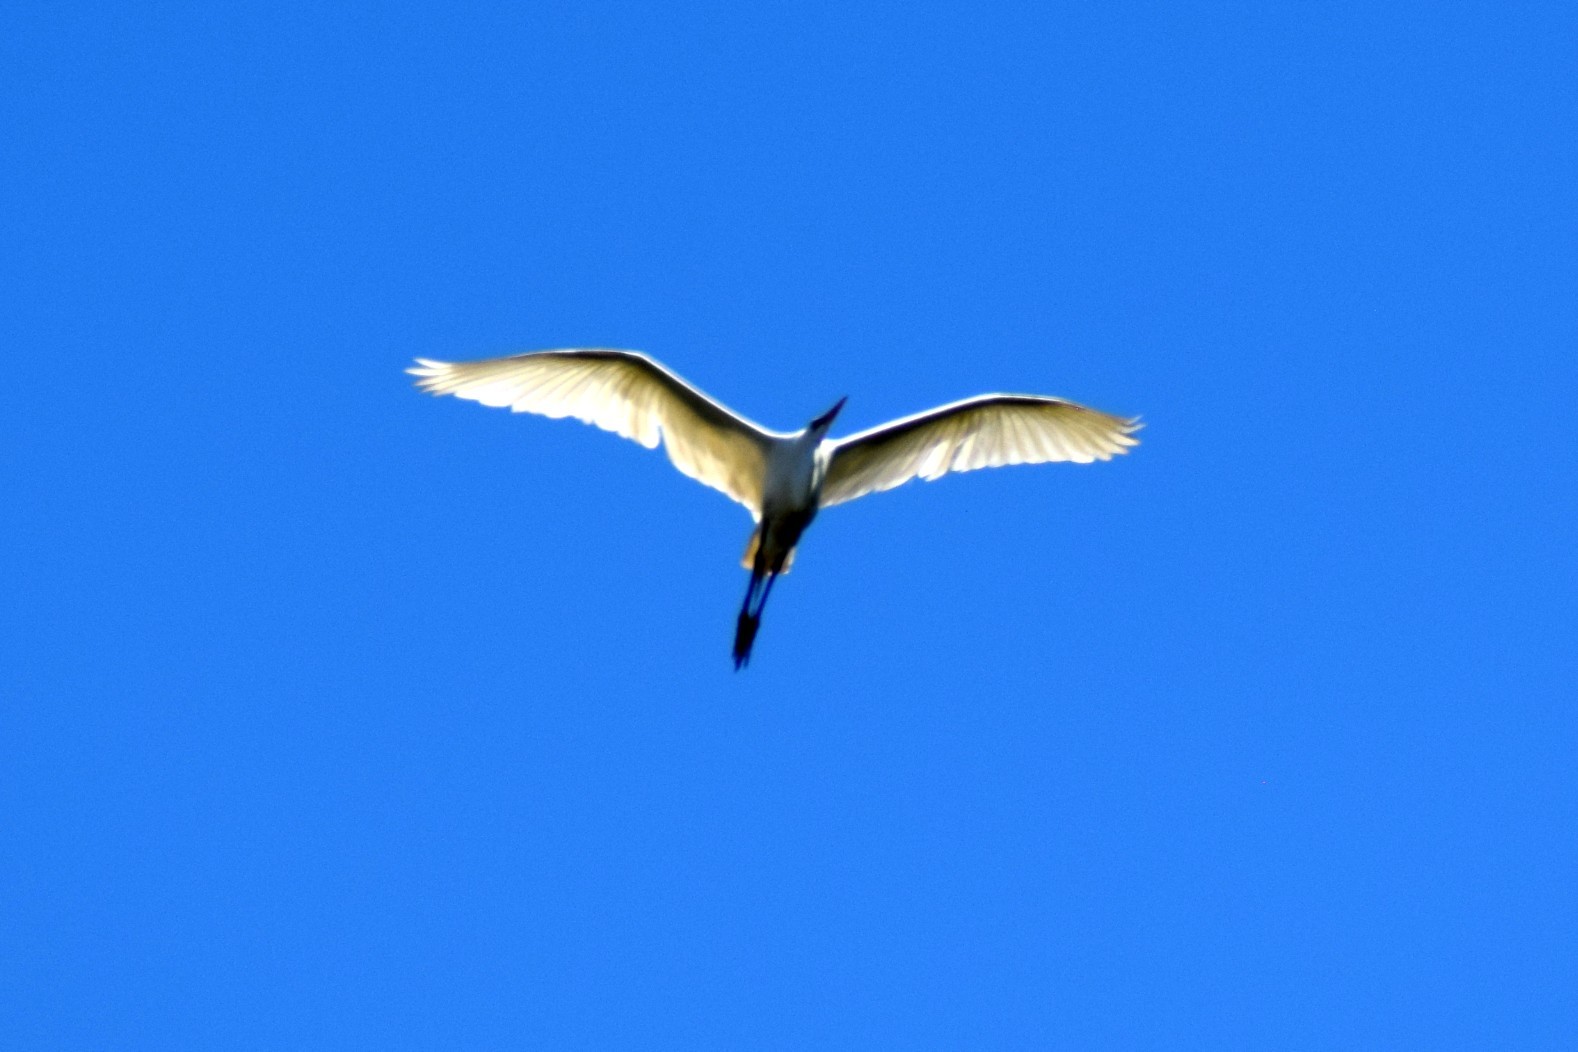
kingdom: Animalia
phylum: Chordata
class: Aves
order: Pelecaniformes
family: Ardeidae
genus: Ardea
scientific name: Ardea alba
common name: Great egret
